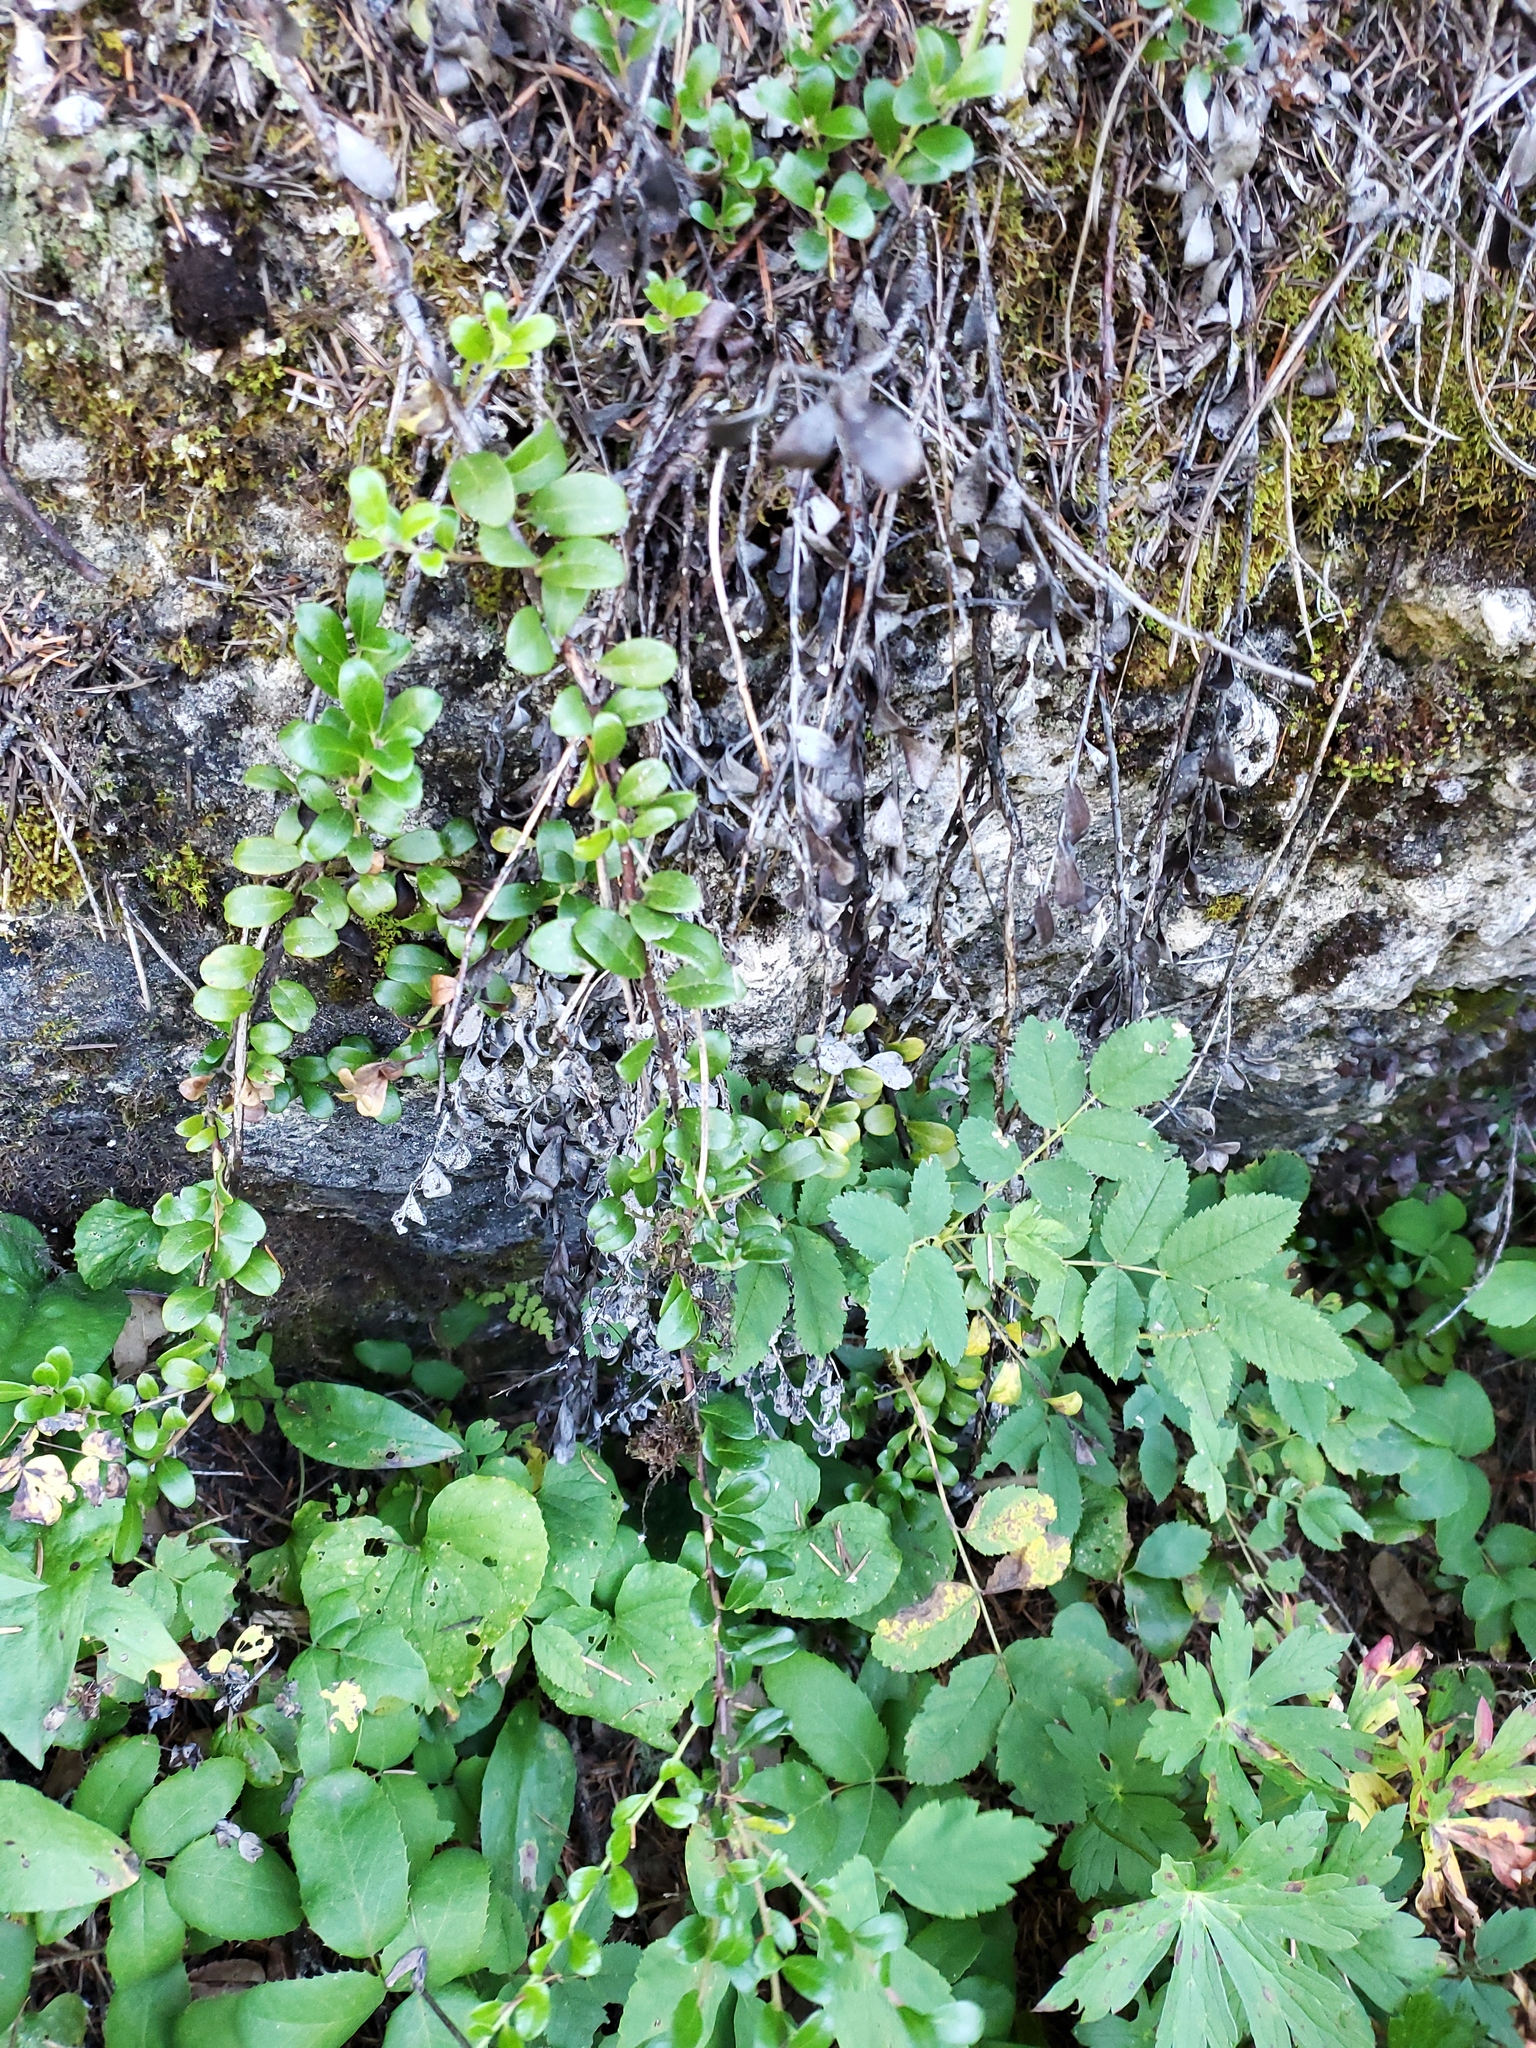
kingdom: Plantae
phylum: Tracheophyta
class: Magnoliopsida
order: Ericales
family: Ericaceae
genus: Arctostaphylos
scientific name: Arctostaphylos uva-ursi
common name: Bearberry
